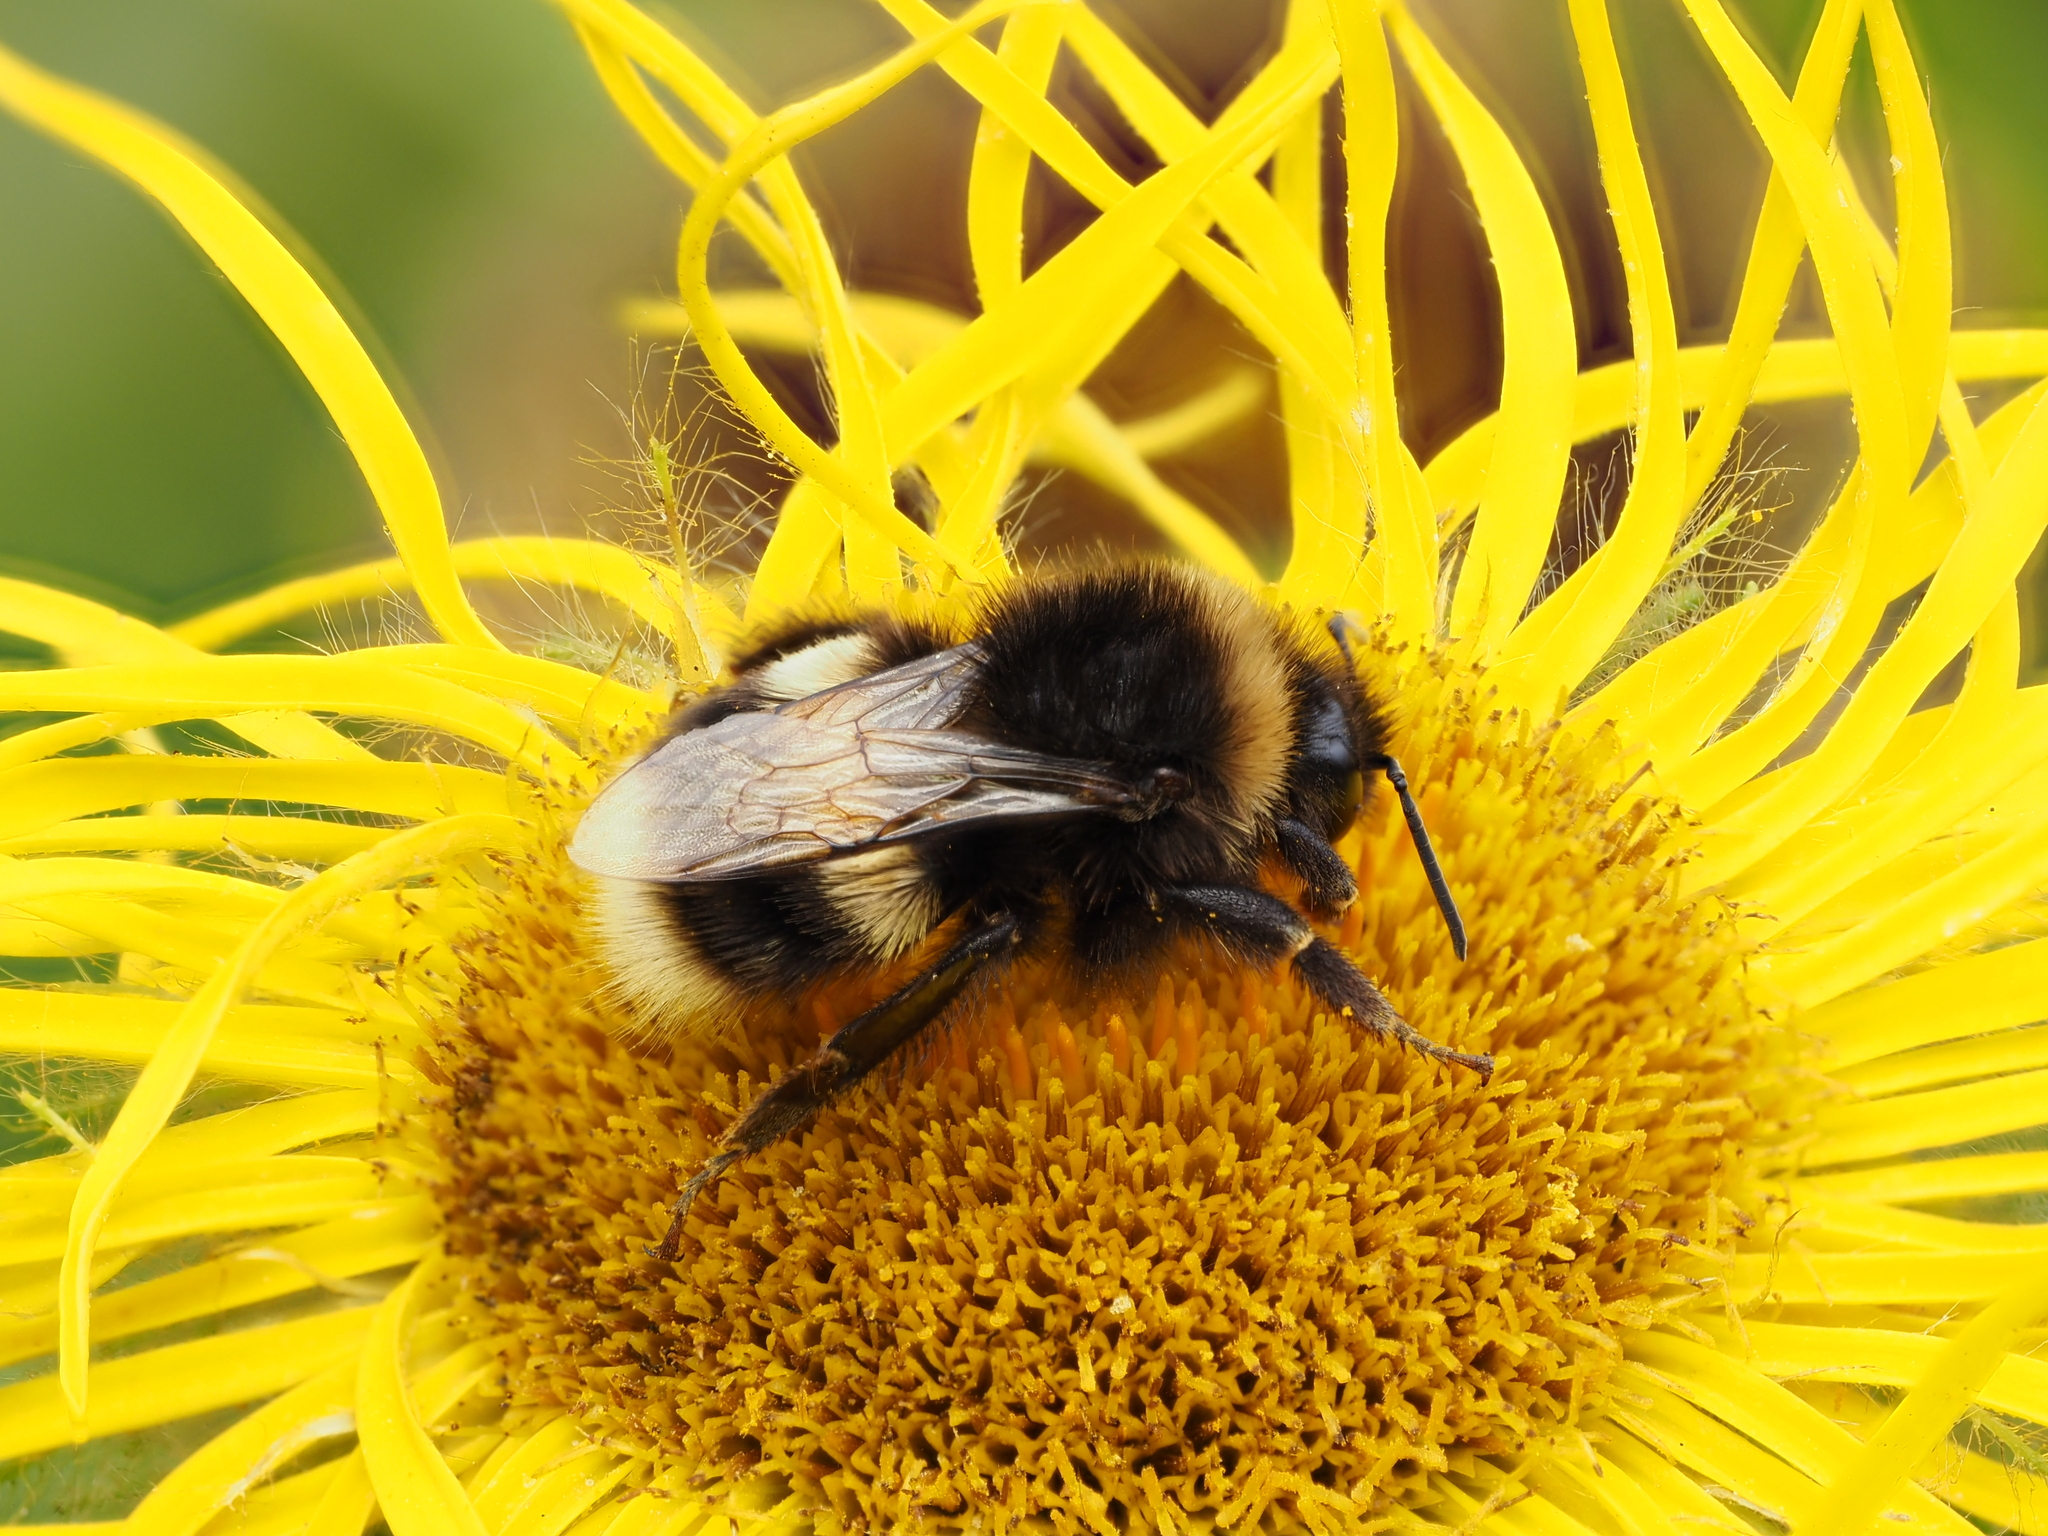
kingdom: Animalia
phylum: Arthropoda
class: Insecta
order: Hymenoptera
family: Apidae
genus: Bombus
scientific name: Bombus terrestris
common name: Buff-tailed bumblebee
